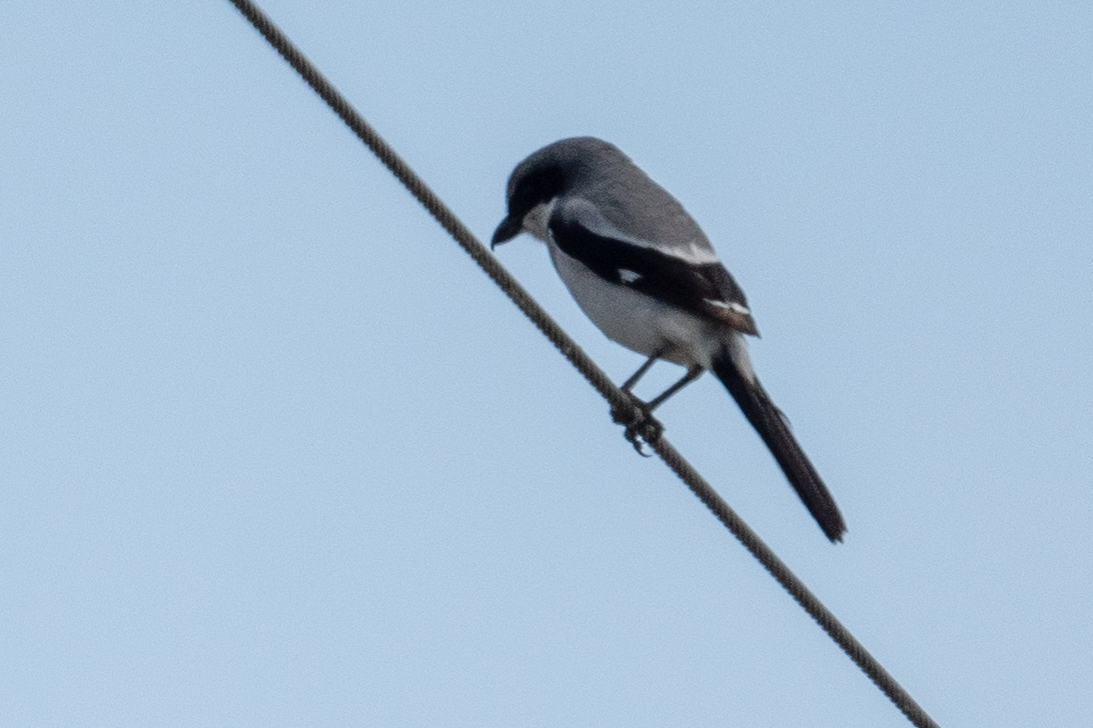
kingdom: Animalia
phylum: Chordata
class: Aves
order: Passeriformes
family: Laniidae
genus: Lanius
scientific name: Lanius ludovicianus
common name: Loggerhead shrike
